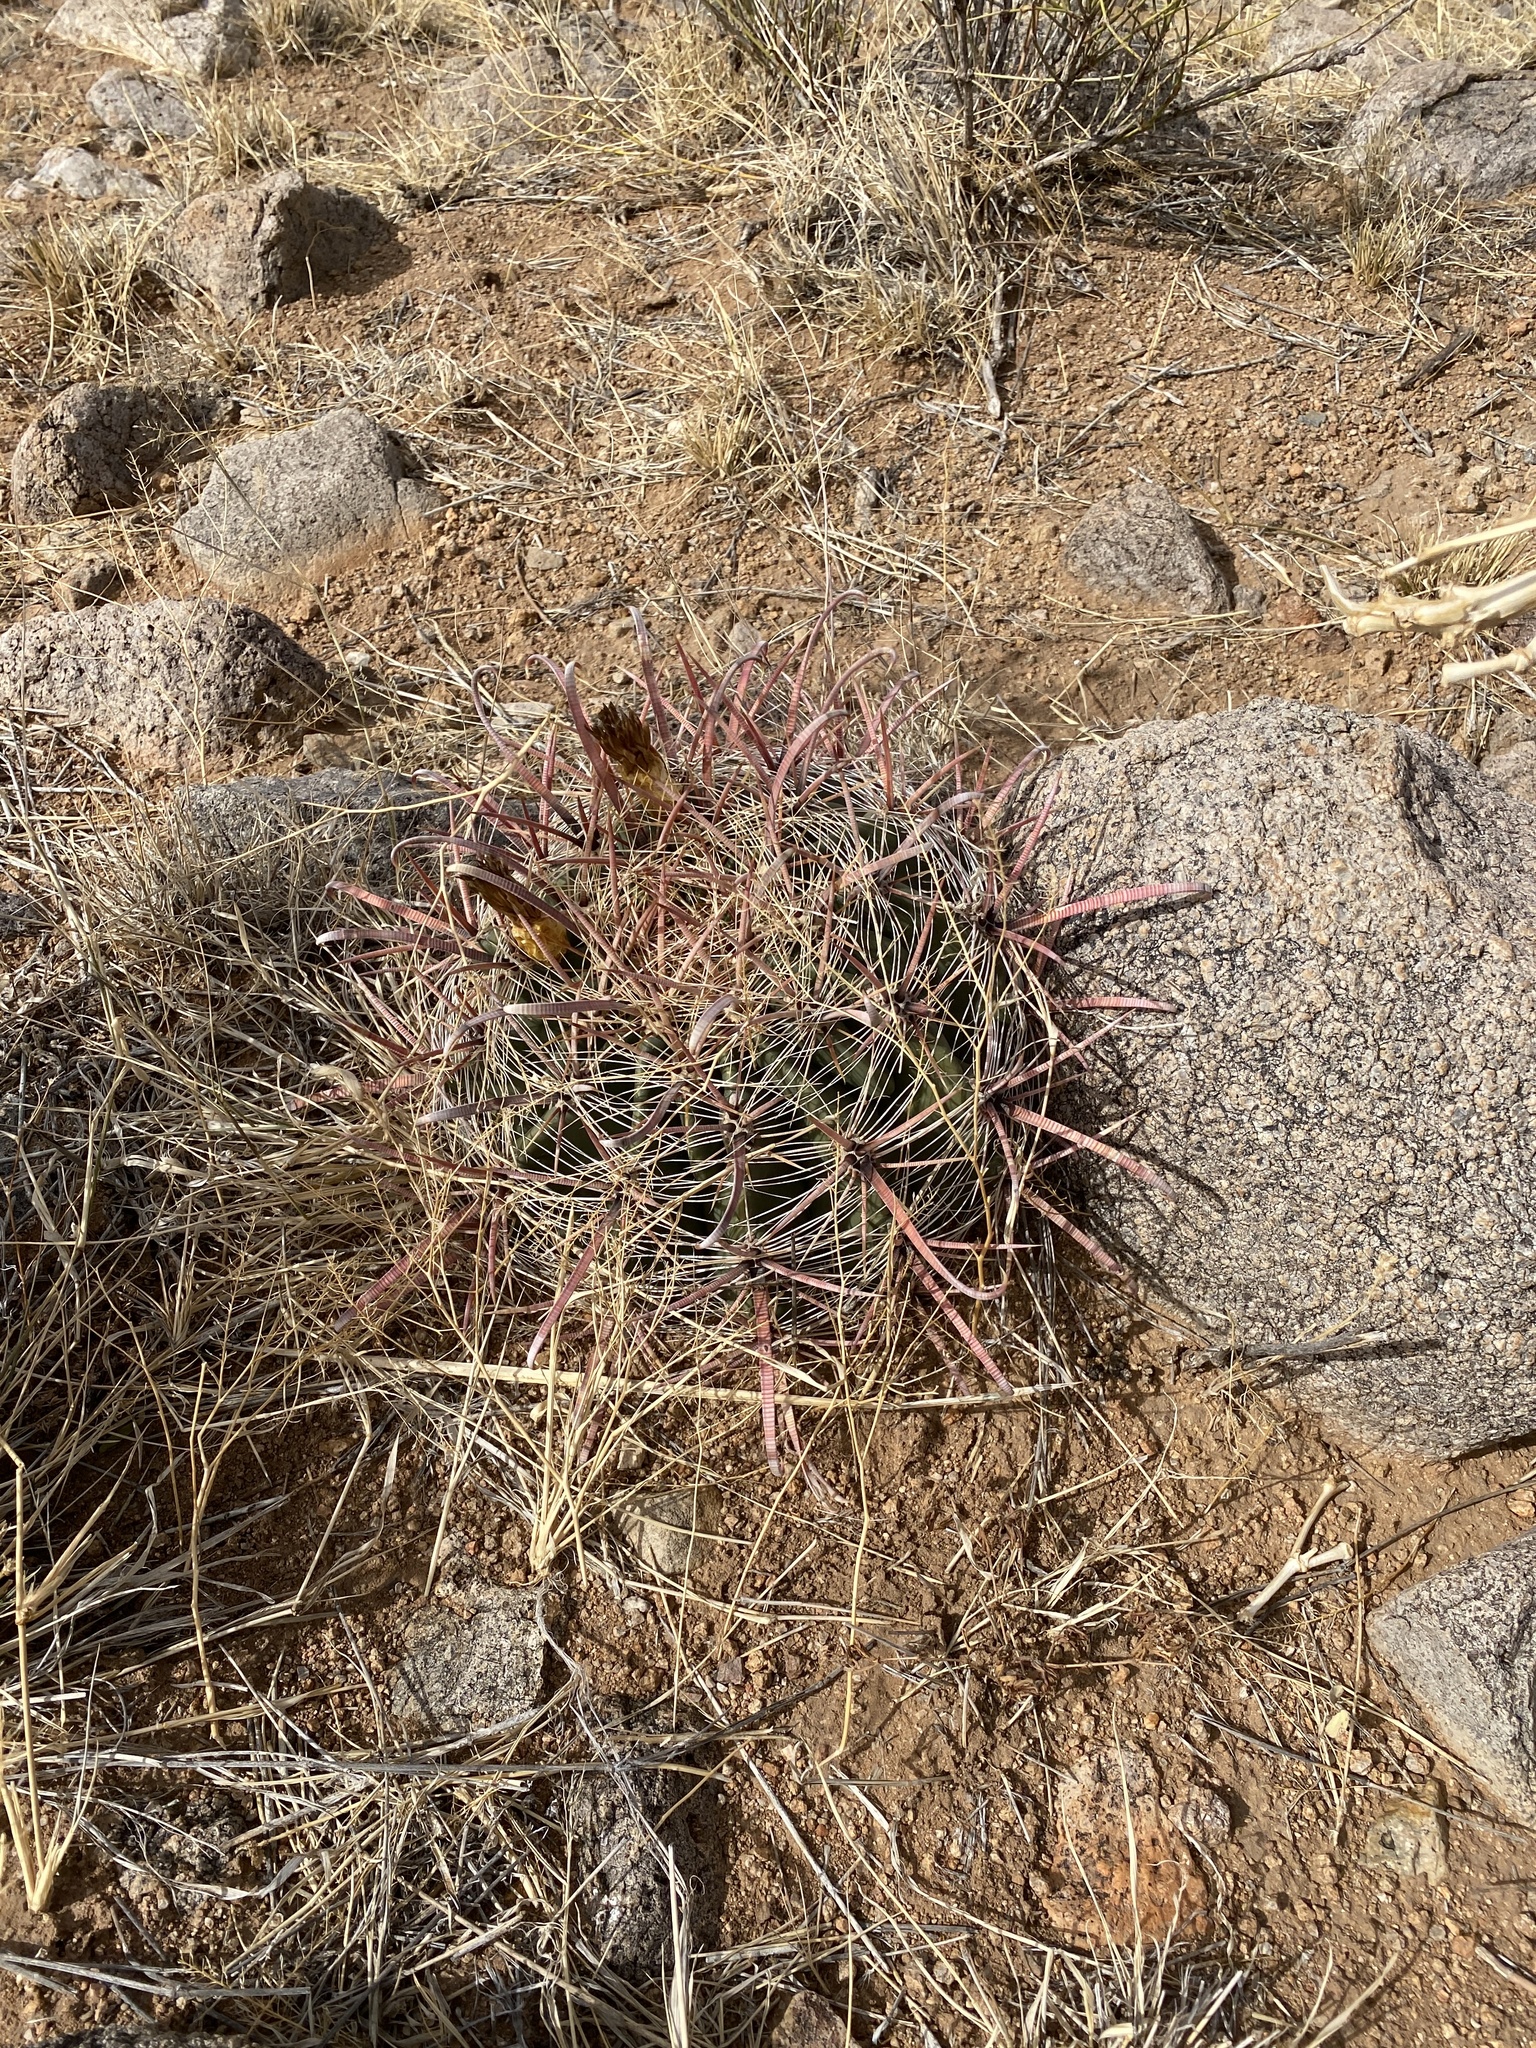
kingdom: Plantae
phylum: Tracheophyta
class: Magnoliopsida
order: Caryophyllales
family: Cactaceae
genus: Ferocactus
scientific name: Ferocactus wislizeni
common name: Candy barrel cactus
